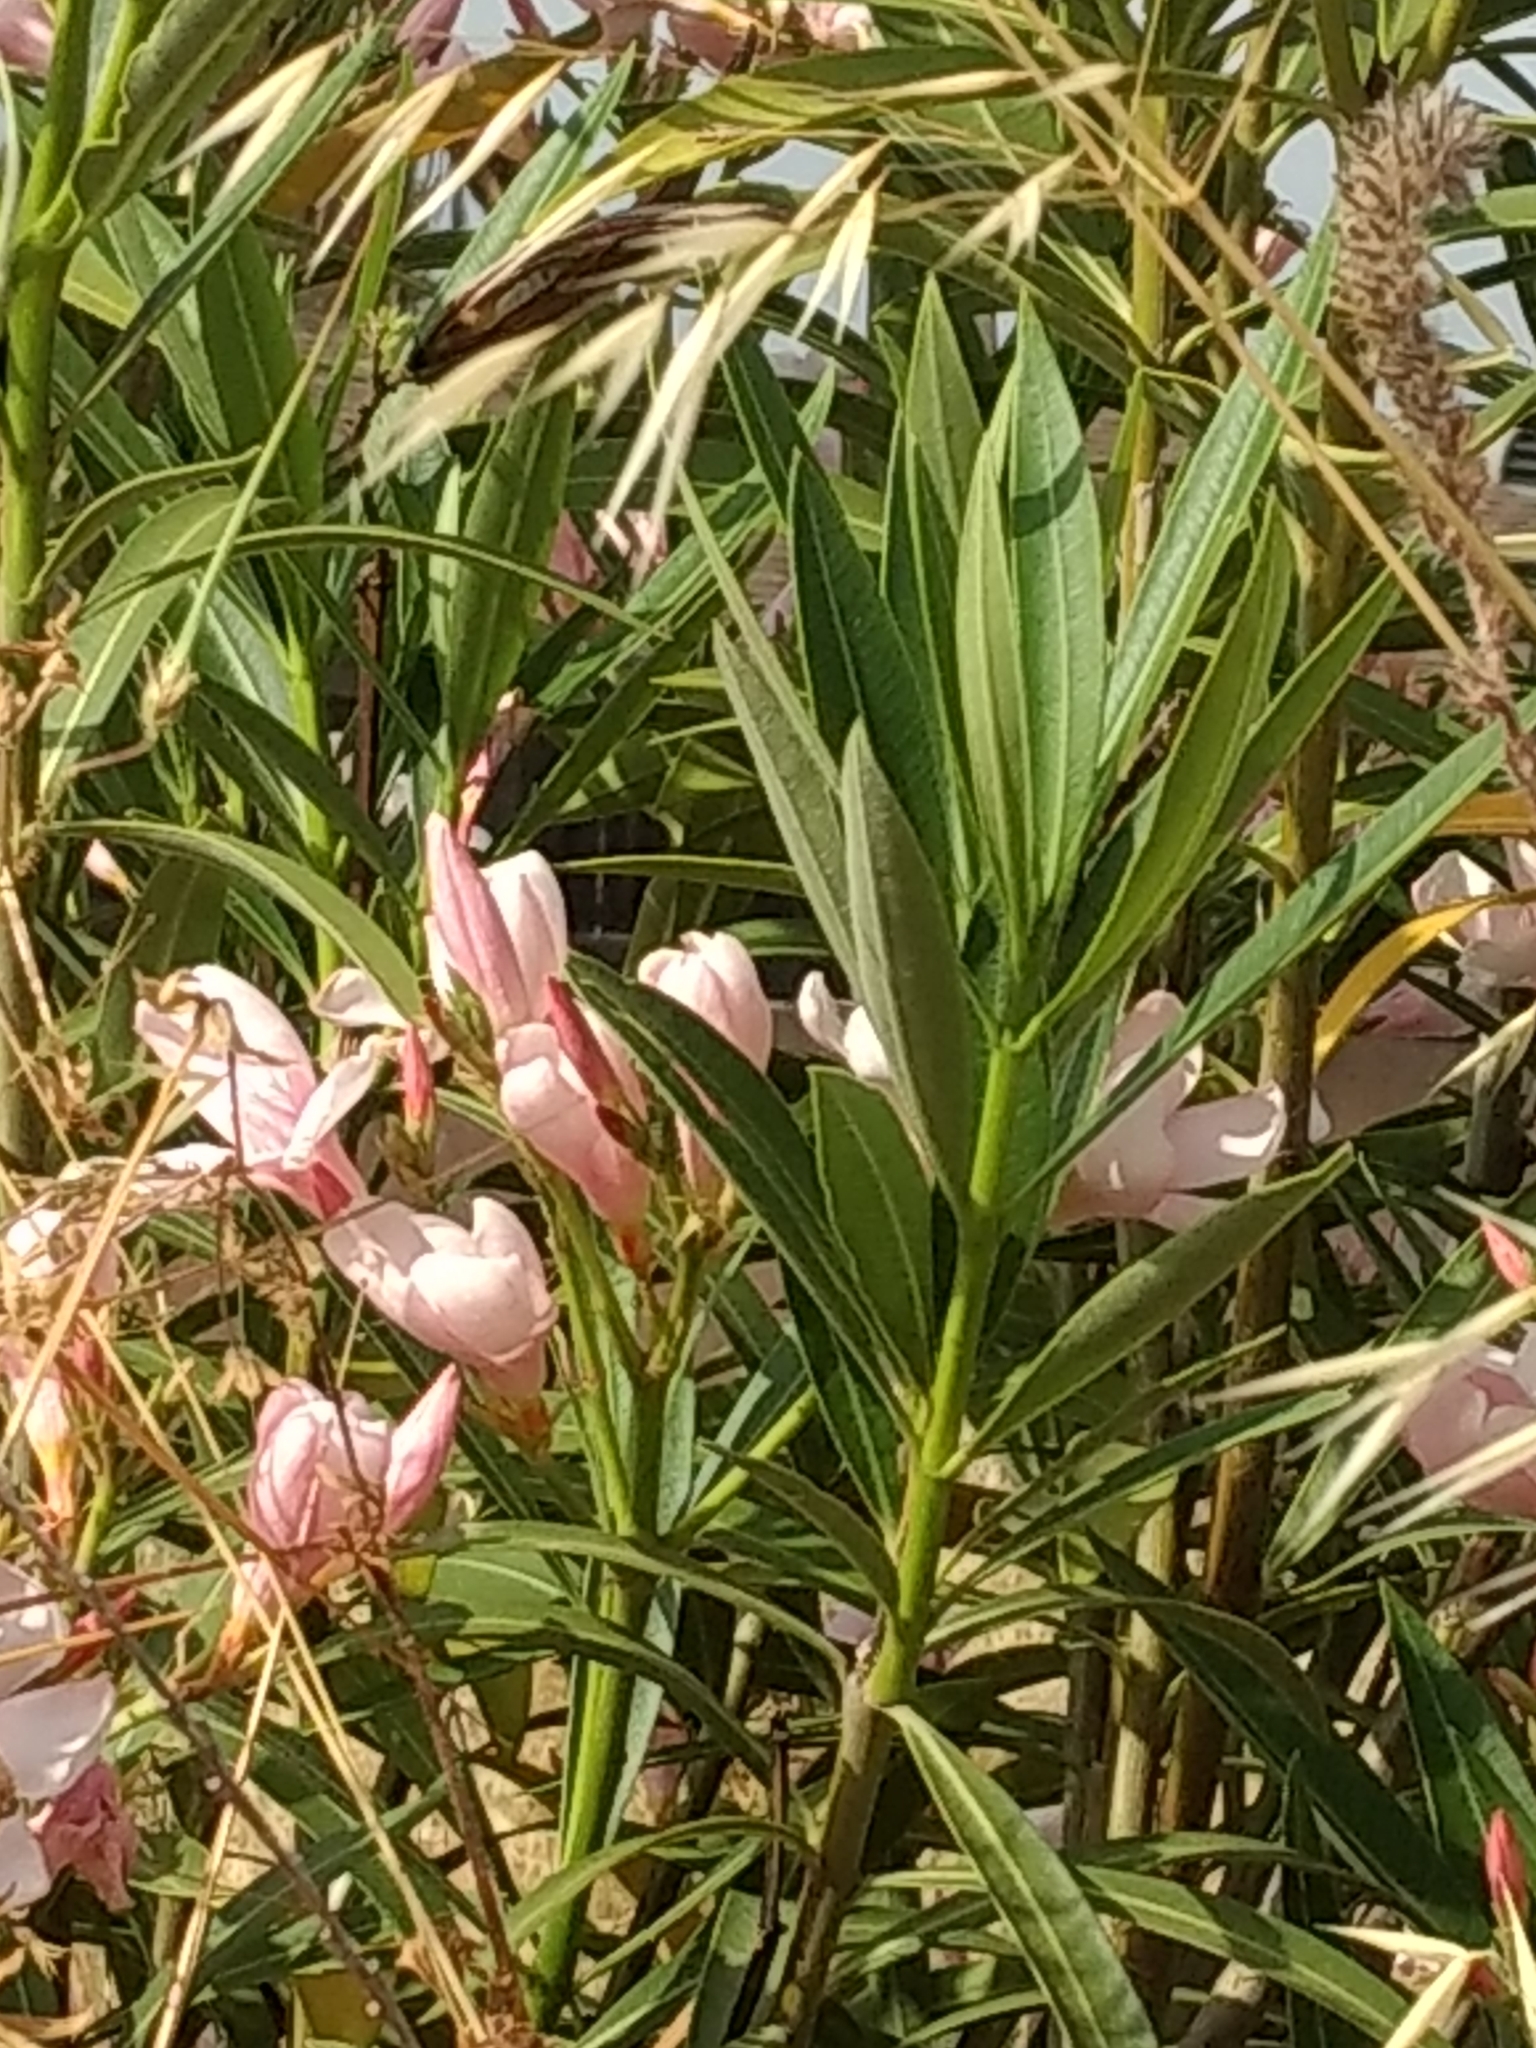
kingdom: Plantae
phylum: Tracheophyta
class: Magnoliopsida
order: Gentianales
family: Apocynaceae
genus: Nerium
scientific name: Nerium oleander
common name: Oleander
